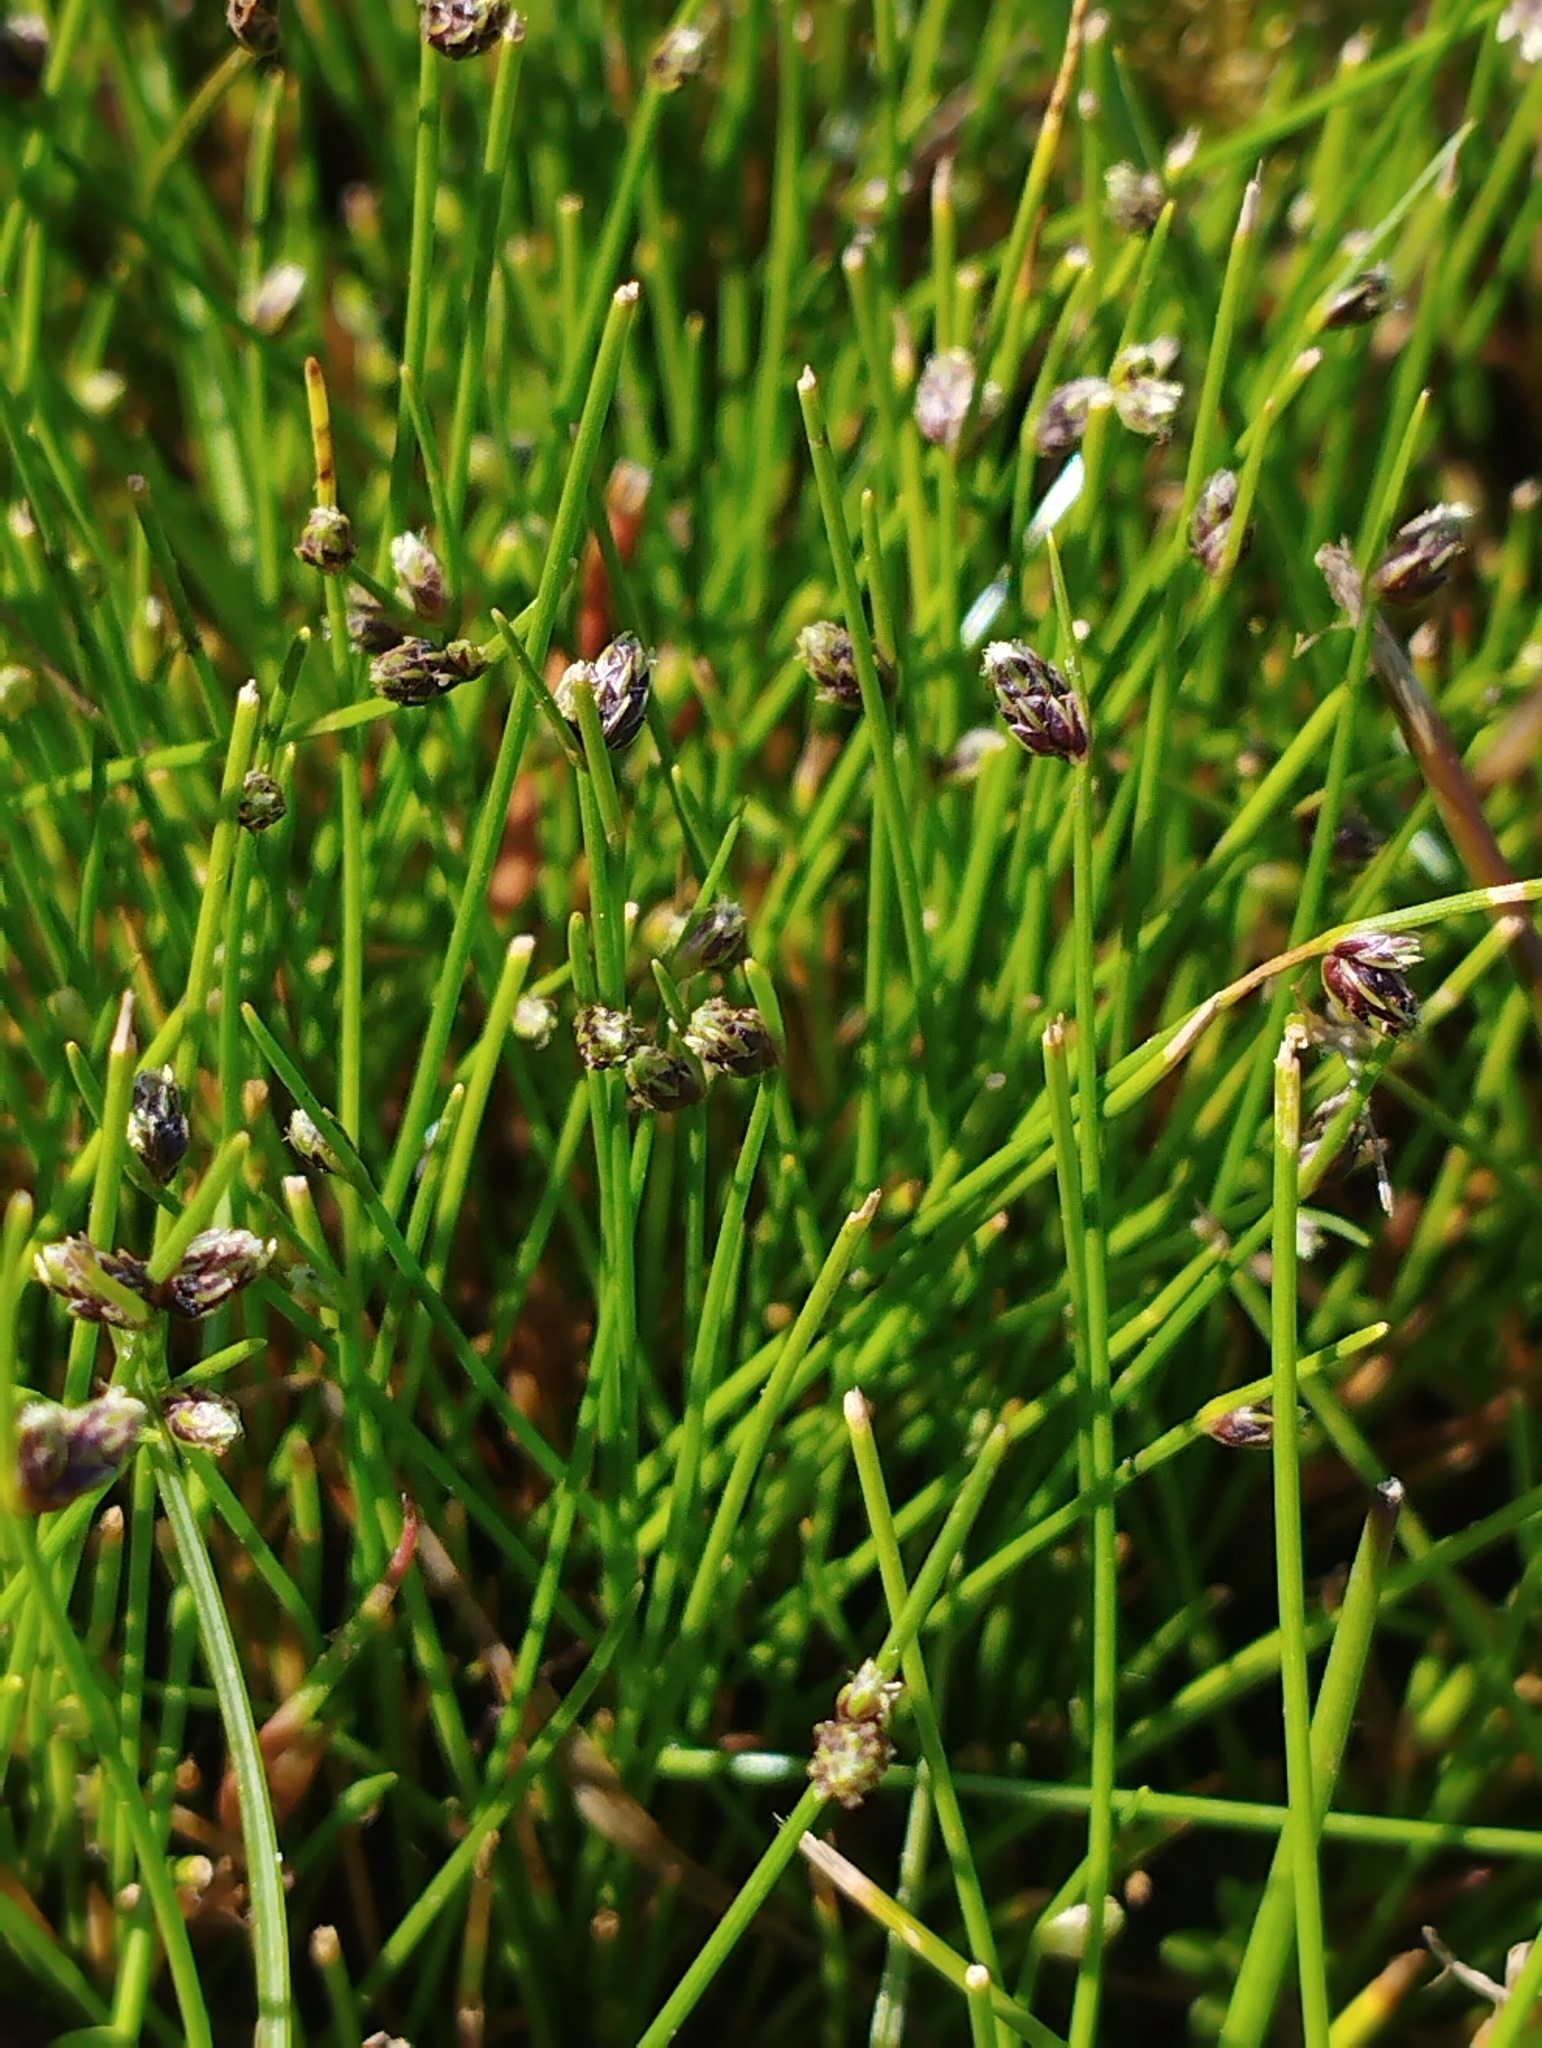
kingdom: Plantae
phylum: Tracheophyta
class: Liliopsida
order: Poales
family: Cyperaceae
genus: Isolepis
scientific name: Isolepis cernua
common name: Slender club-rush
